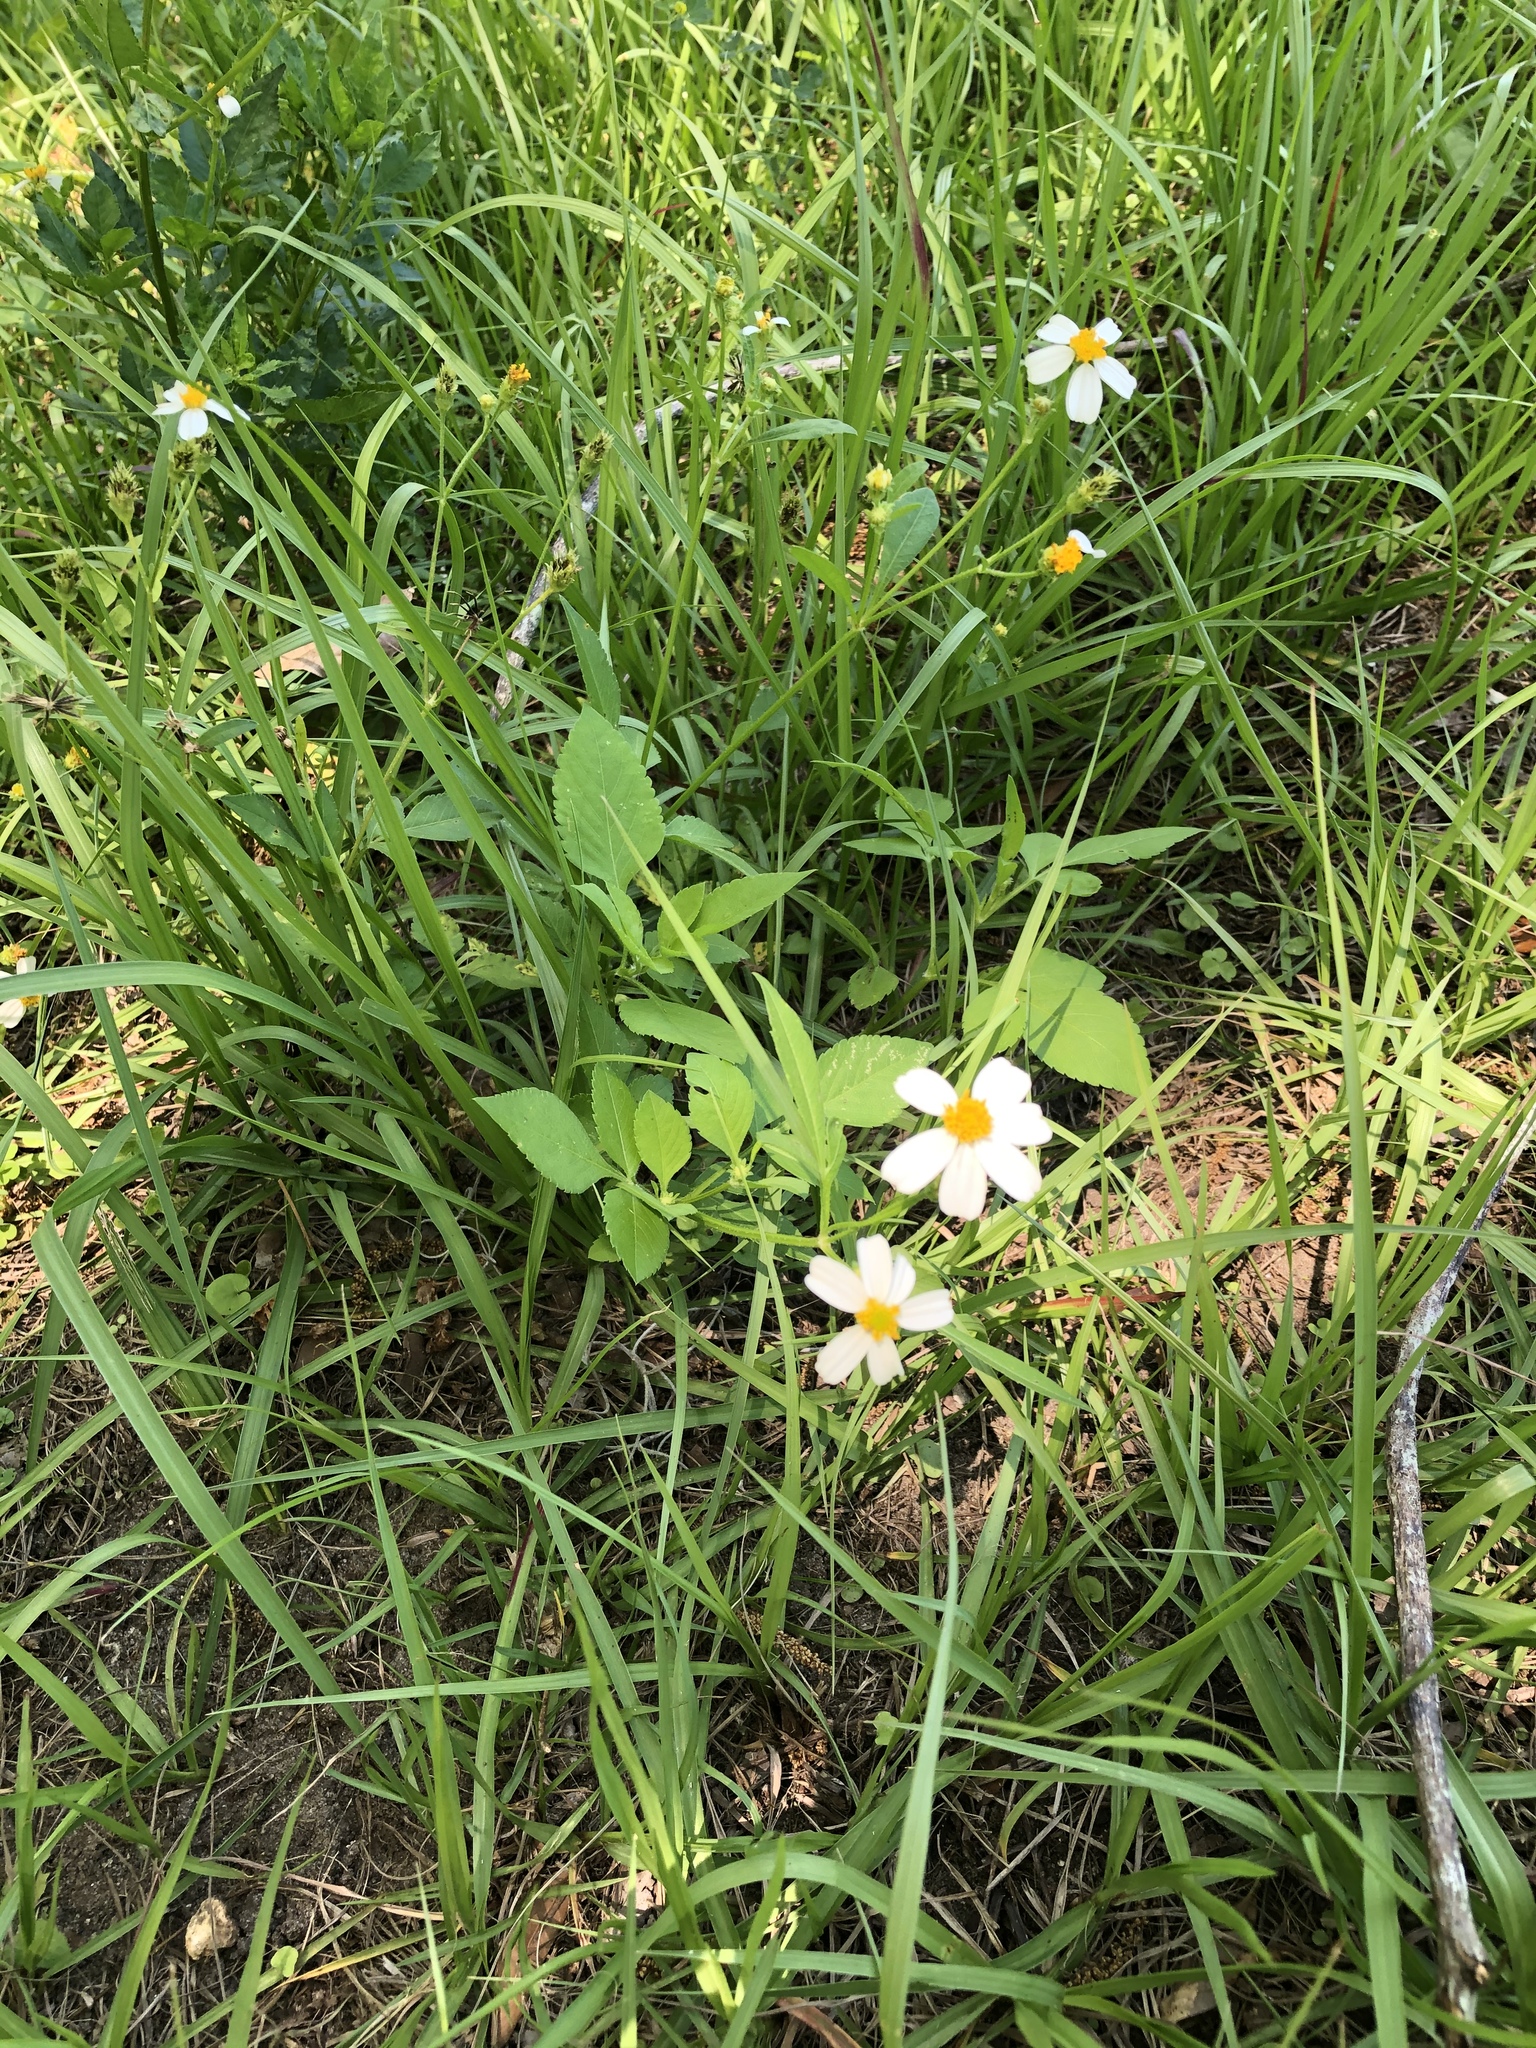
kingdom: Plantae
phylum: Tracheophyta
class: Magnoliopsida
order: Asterales
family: Asteraceae
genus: Bidens
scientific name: Bidens alba
